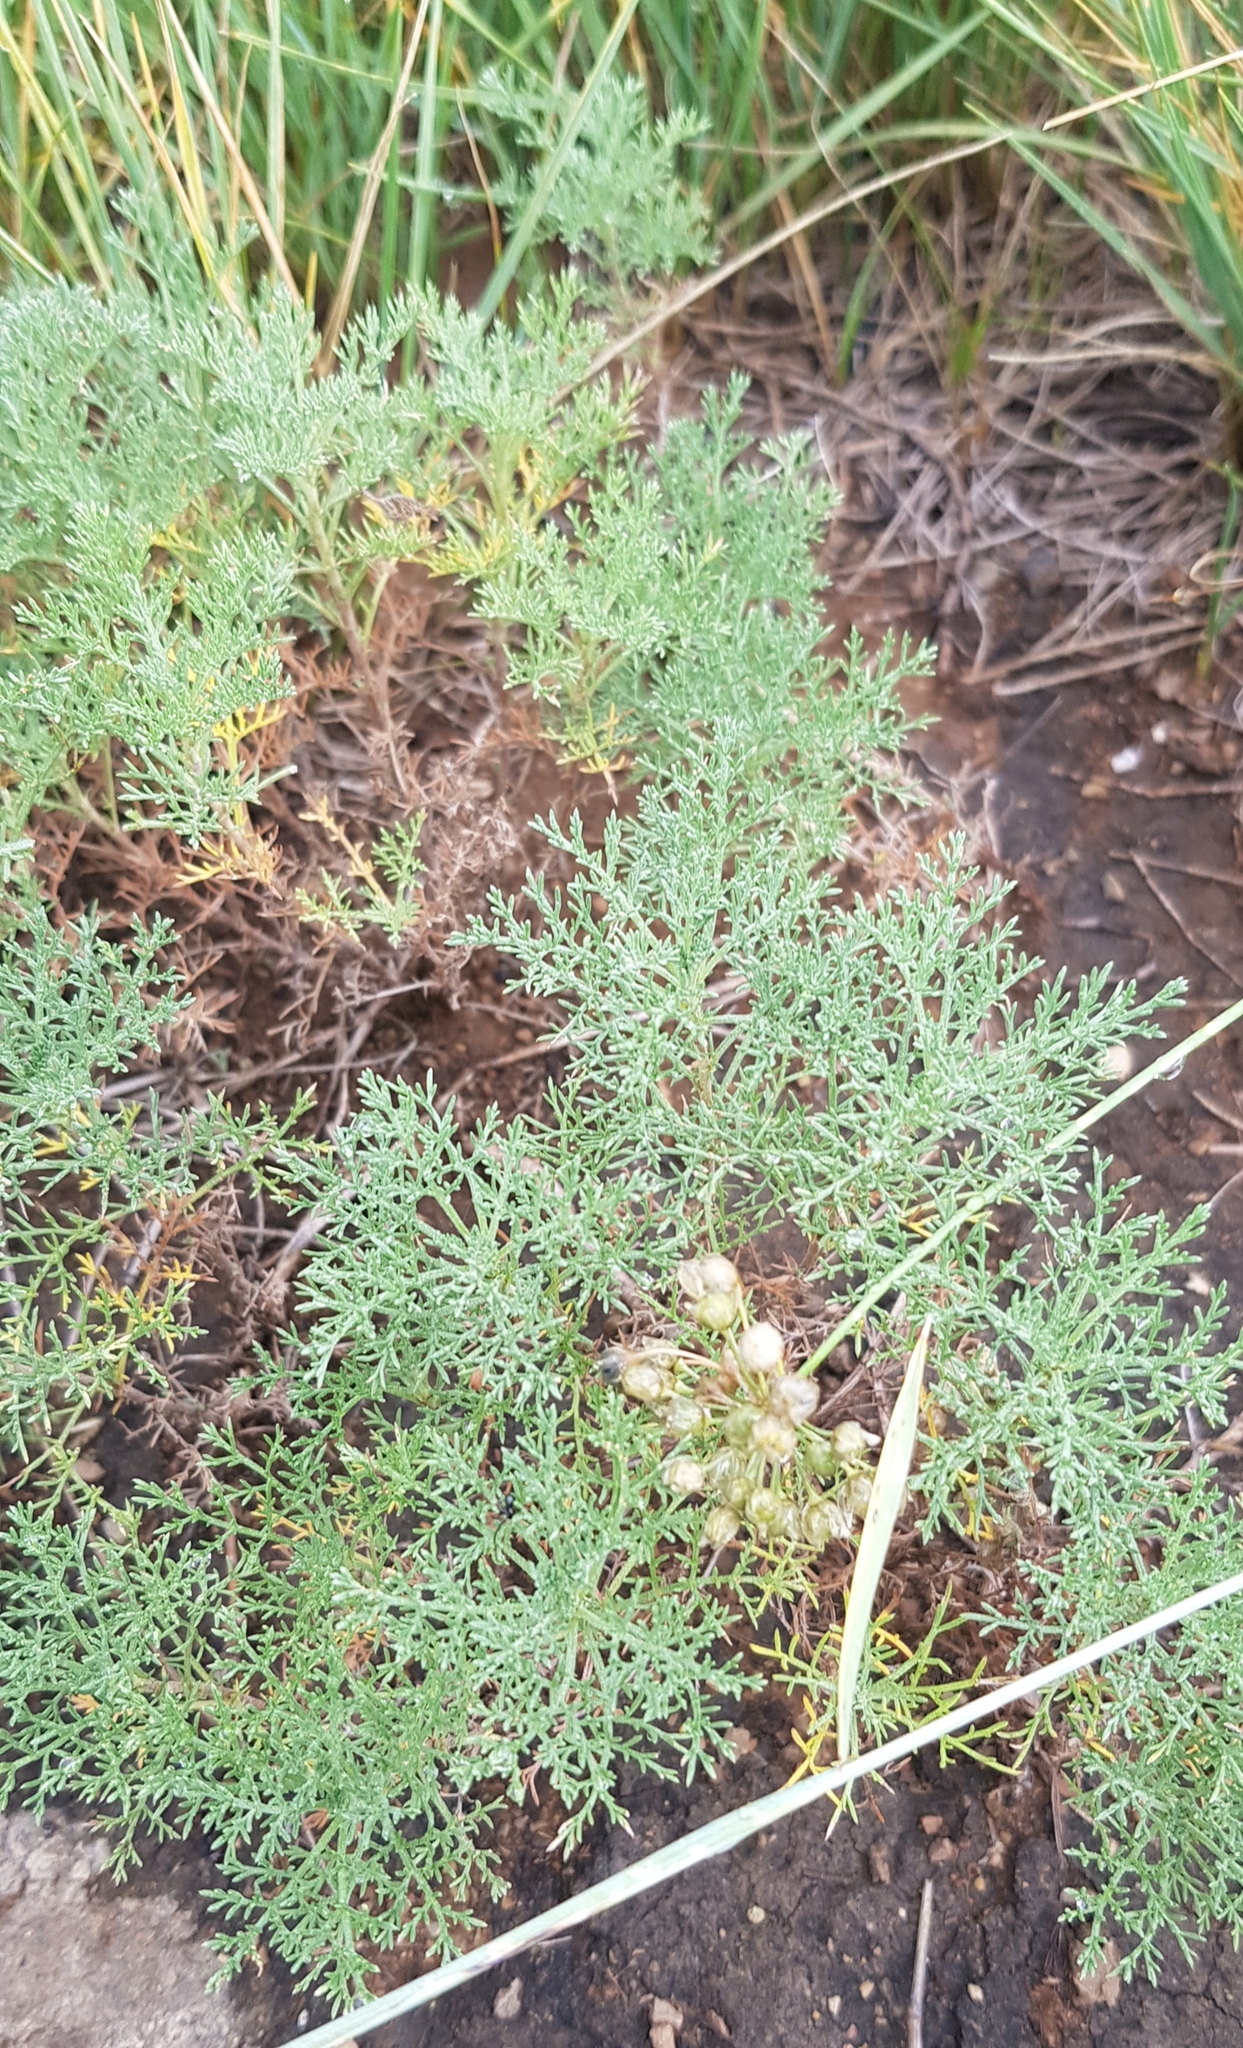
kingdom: Plantae
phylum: Tracheophyta
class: Magnoliopsida
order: Asterales
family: Asteraceae
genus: Artemisia
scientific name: Artemisia adamsii
